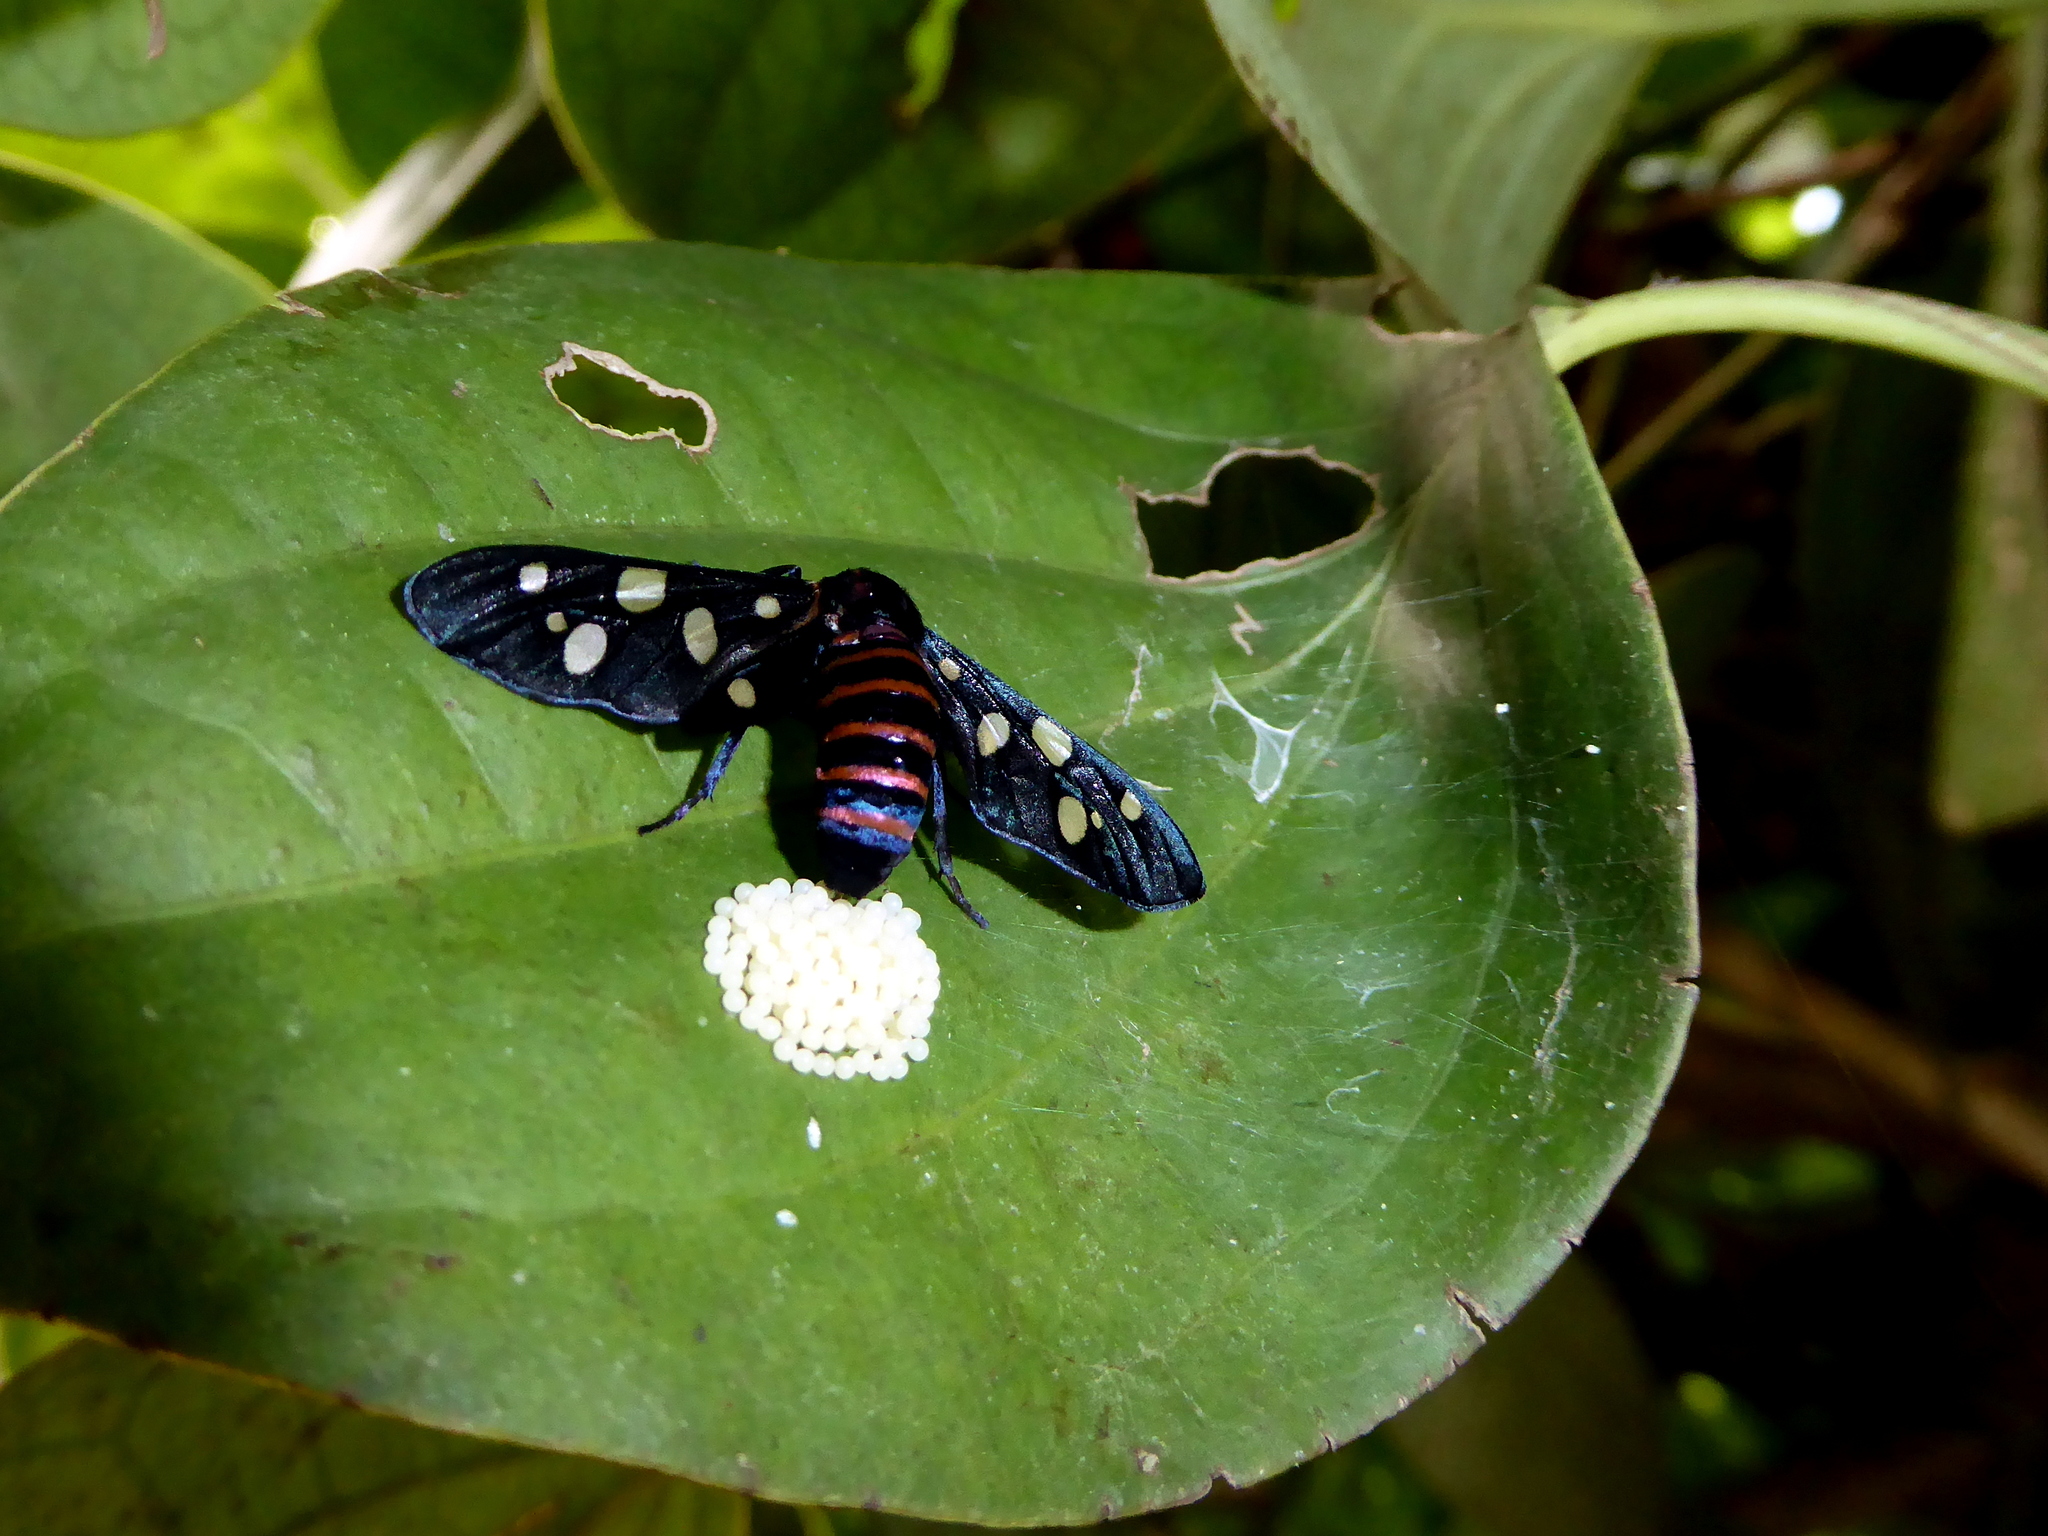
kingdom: Animalia
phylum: Arthropoda
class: Insecta
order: Lepidoptera
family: Erebidae
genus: Amata
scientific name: Amata passalis
